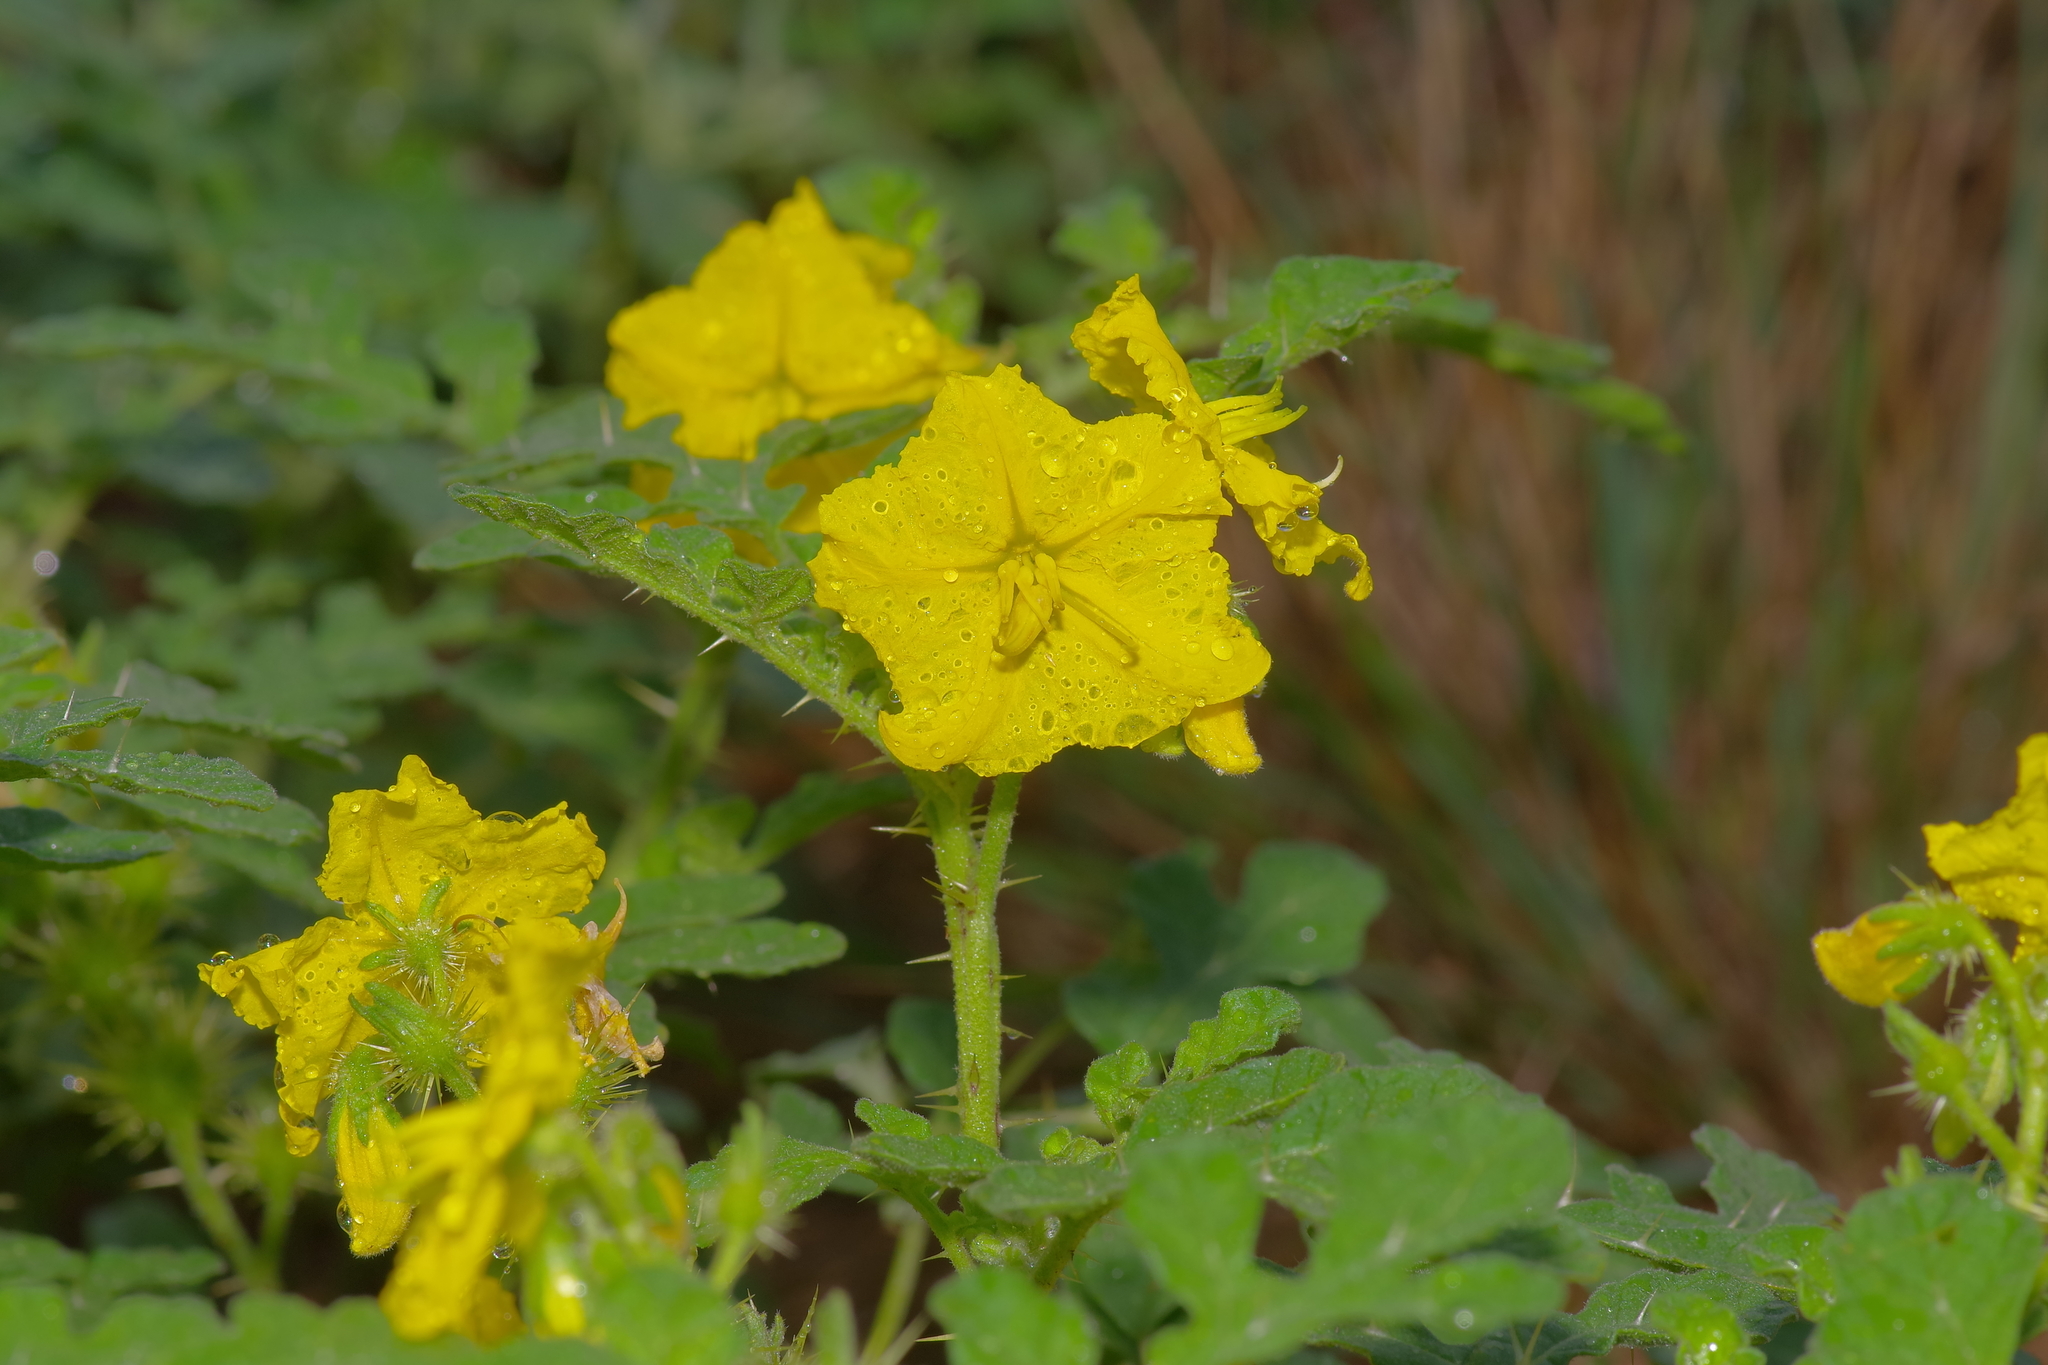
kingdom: Plantae
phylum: Tracheophyta
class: Magnoliopsida
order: Solanales
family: Solanaceae
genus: Solanum
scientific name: Solanum angustifolium
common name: Buffalobur nightshade
